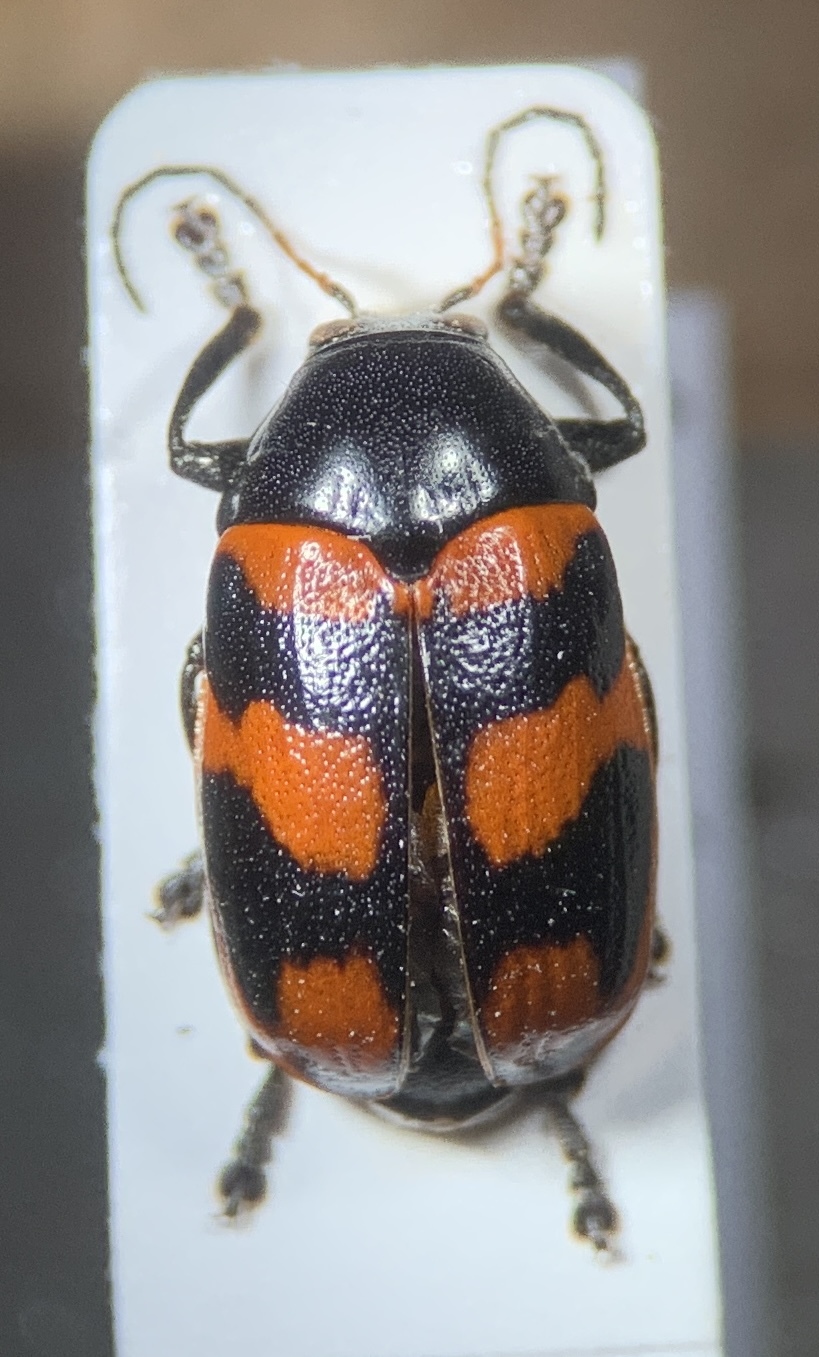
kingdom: Animalia
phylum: Arthropoda
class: Insecta
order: Coleoptera
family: Chrysomelidae
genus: Cryptocephalus
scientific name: Cryptocephalus loreyi
